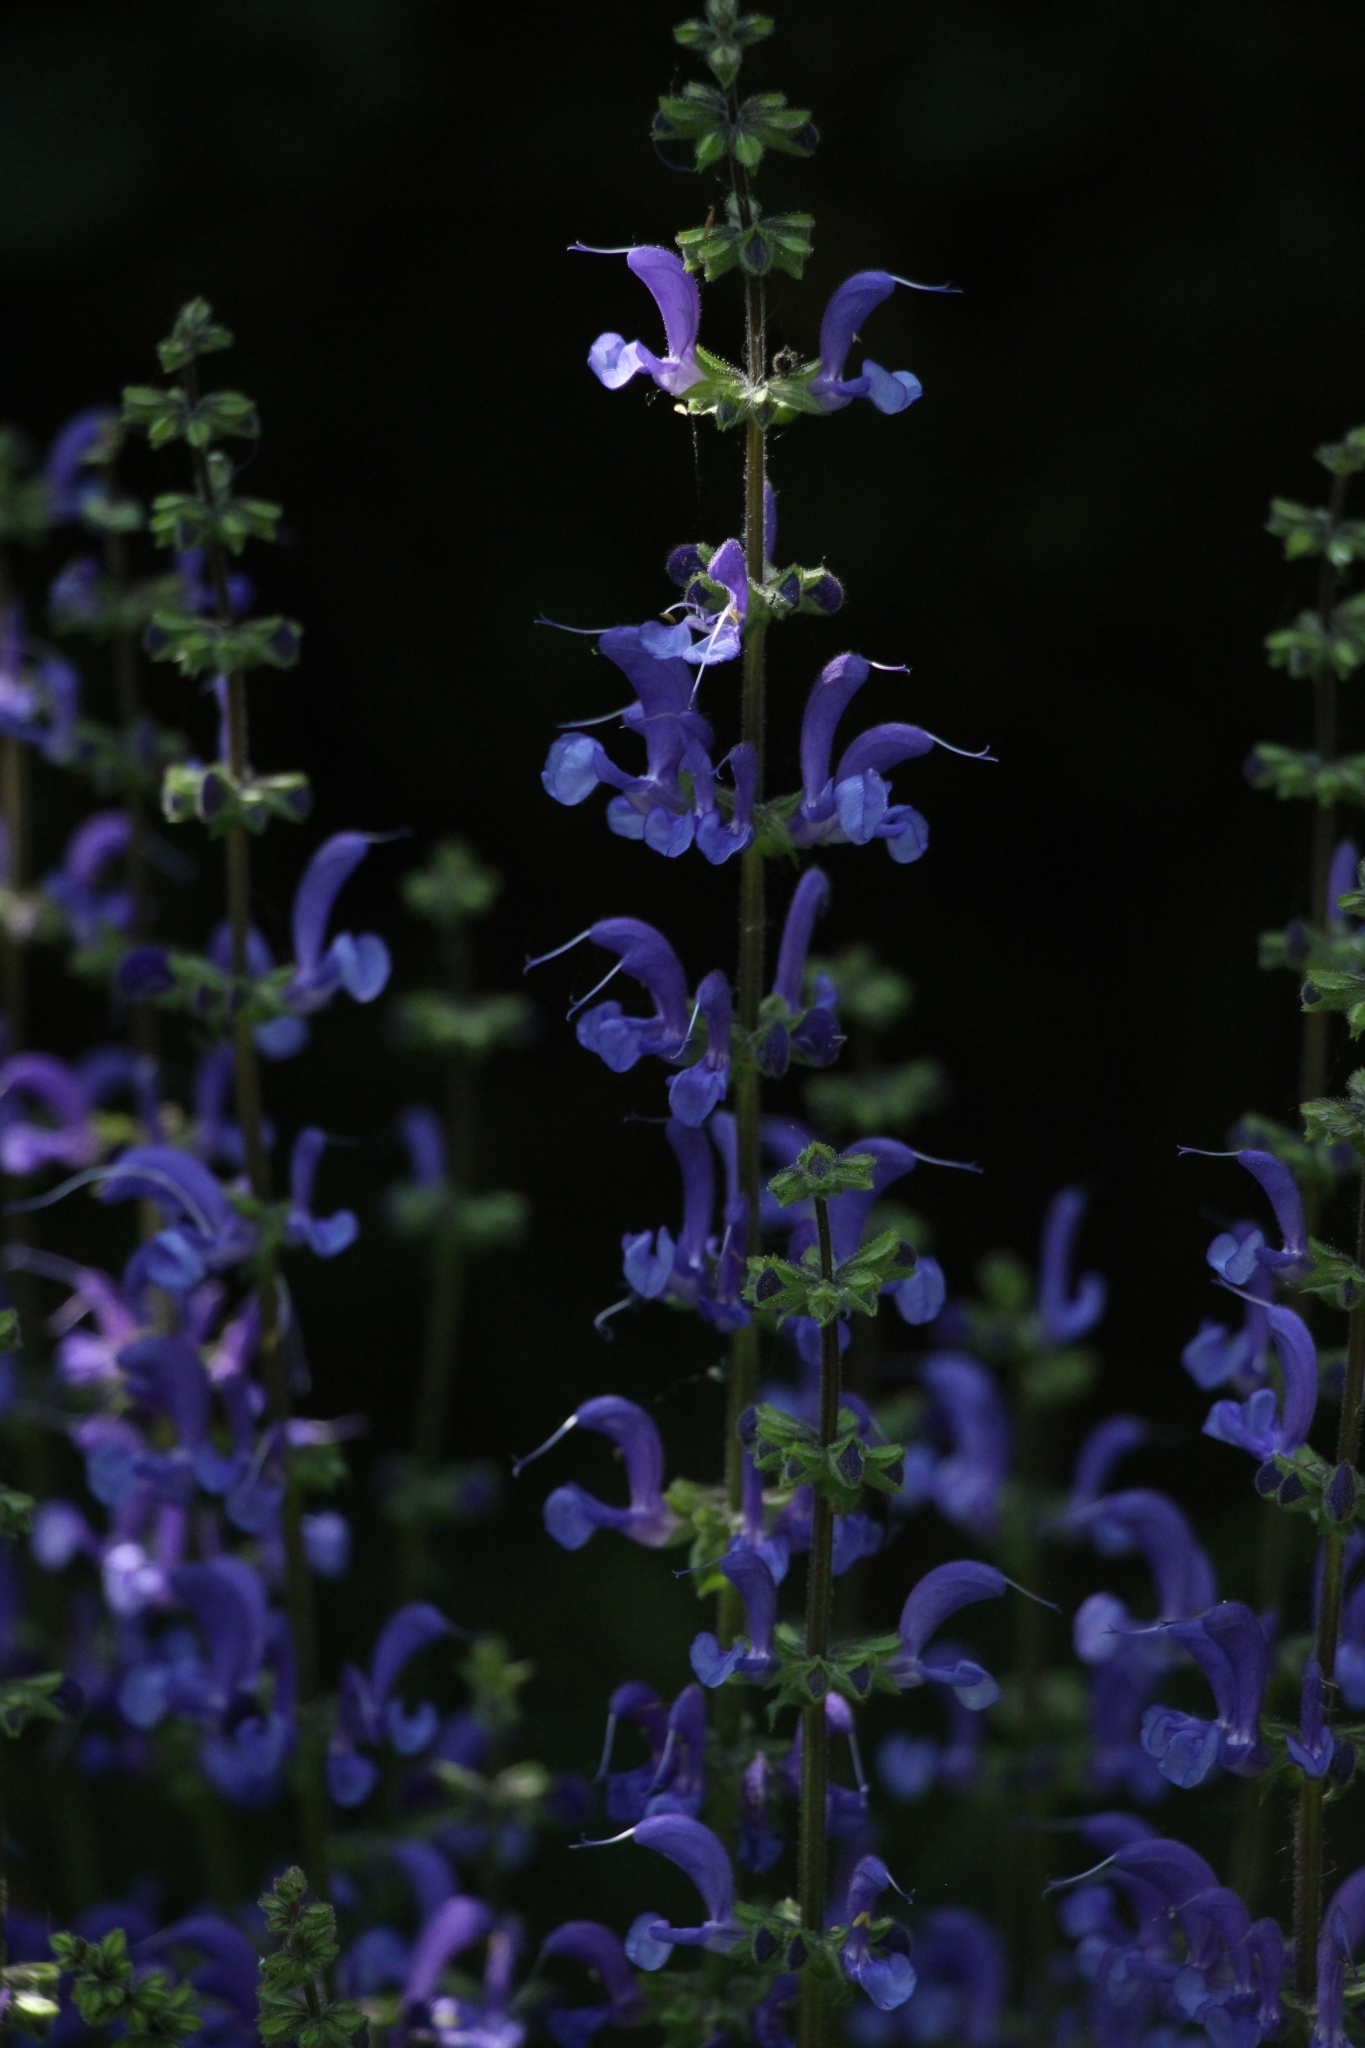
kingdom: Plantae
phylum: Tracheophyta
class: Magnoliopsida
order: Lamiales
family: Lamiaceae
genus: Salvia
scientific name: Salvia pratensis
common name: Meadow sage
